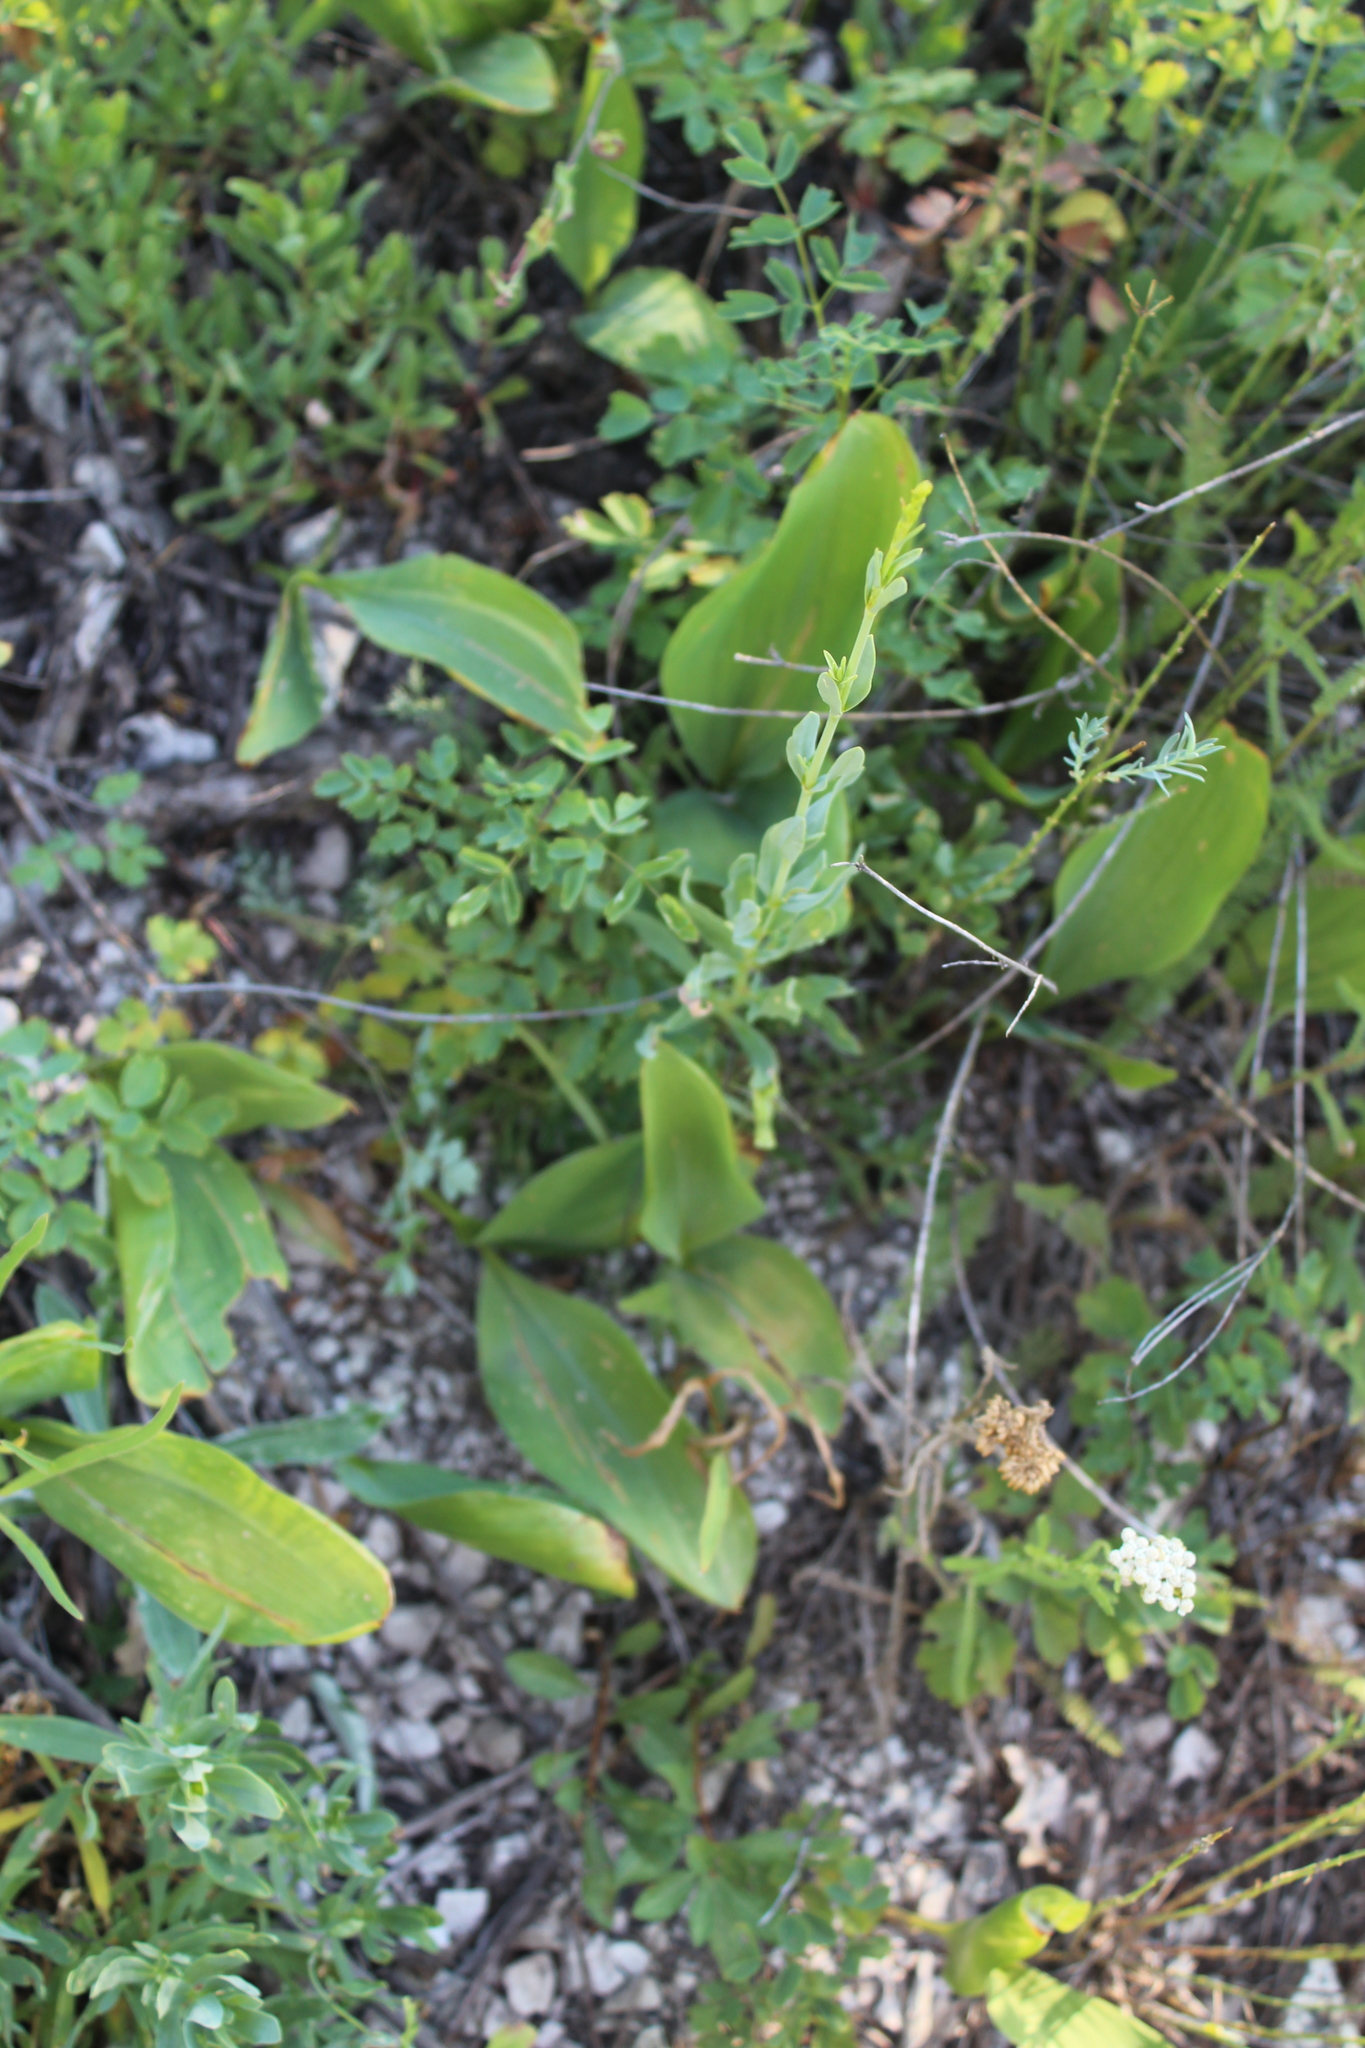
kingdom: Plantae
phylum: Tracheophyta
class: Liliopsida
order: Asparagales
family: Asparagaceae
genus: Convallaria
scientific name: Convallaria majalis
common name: Lily-of-the-valley
